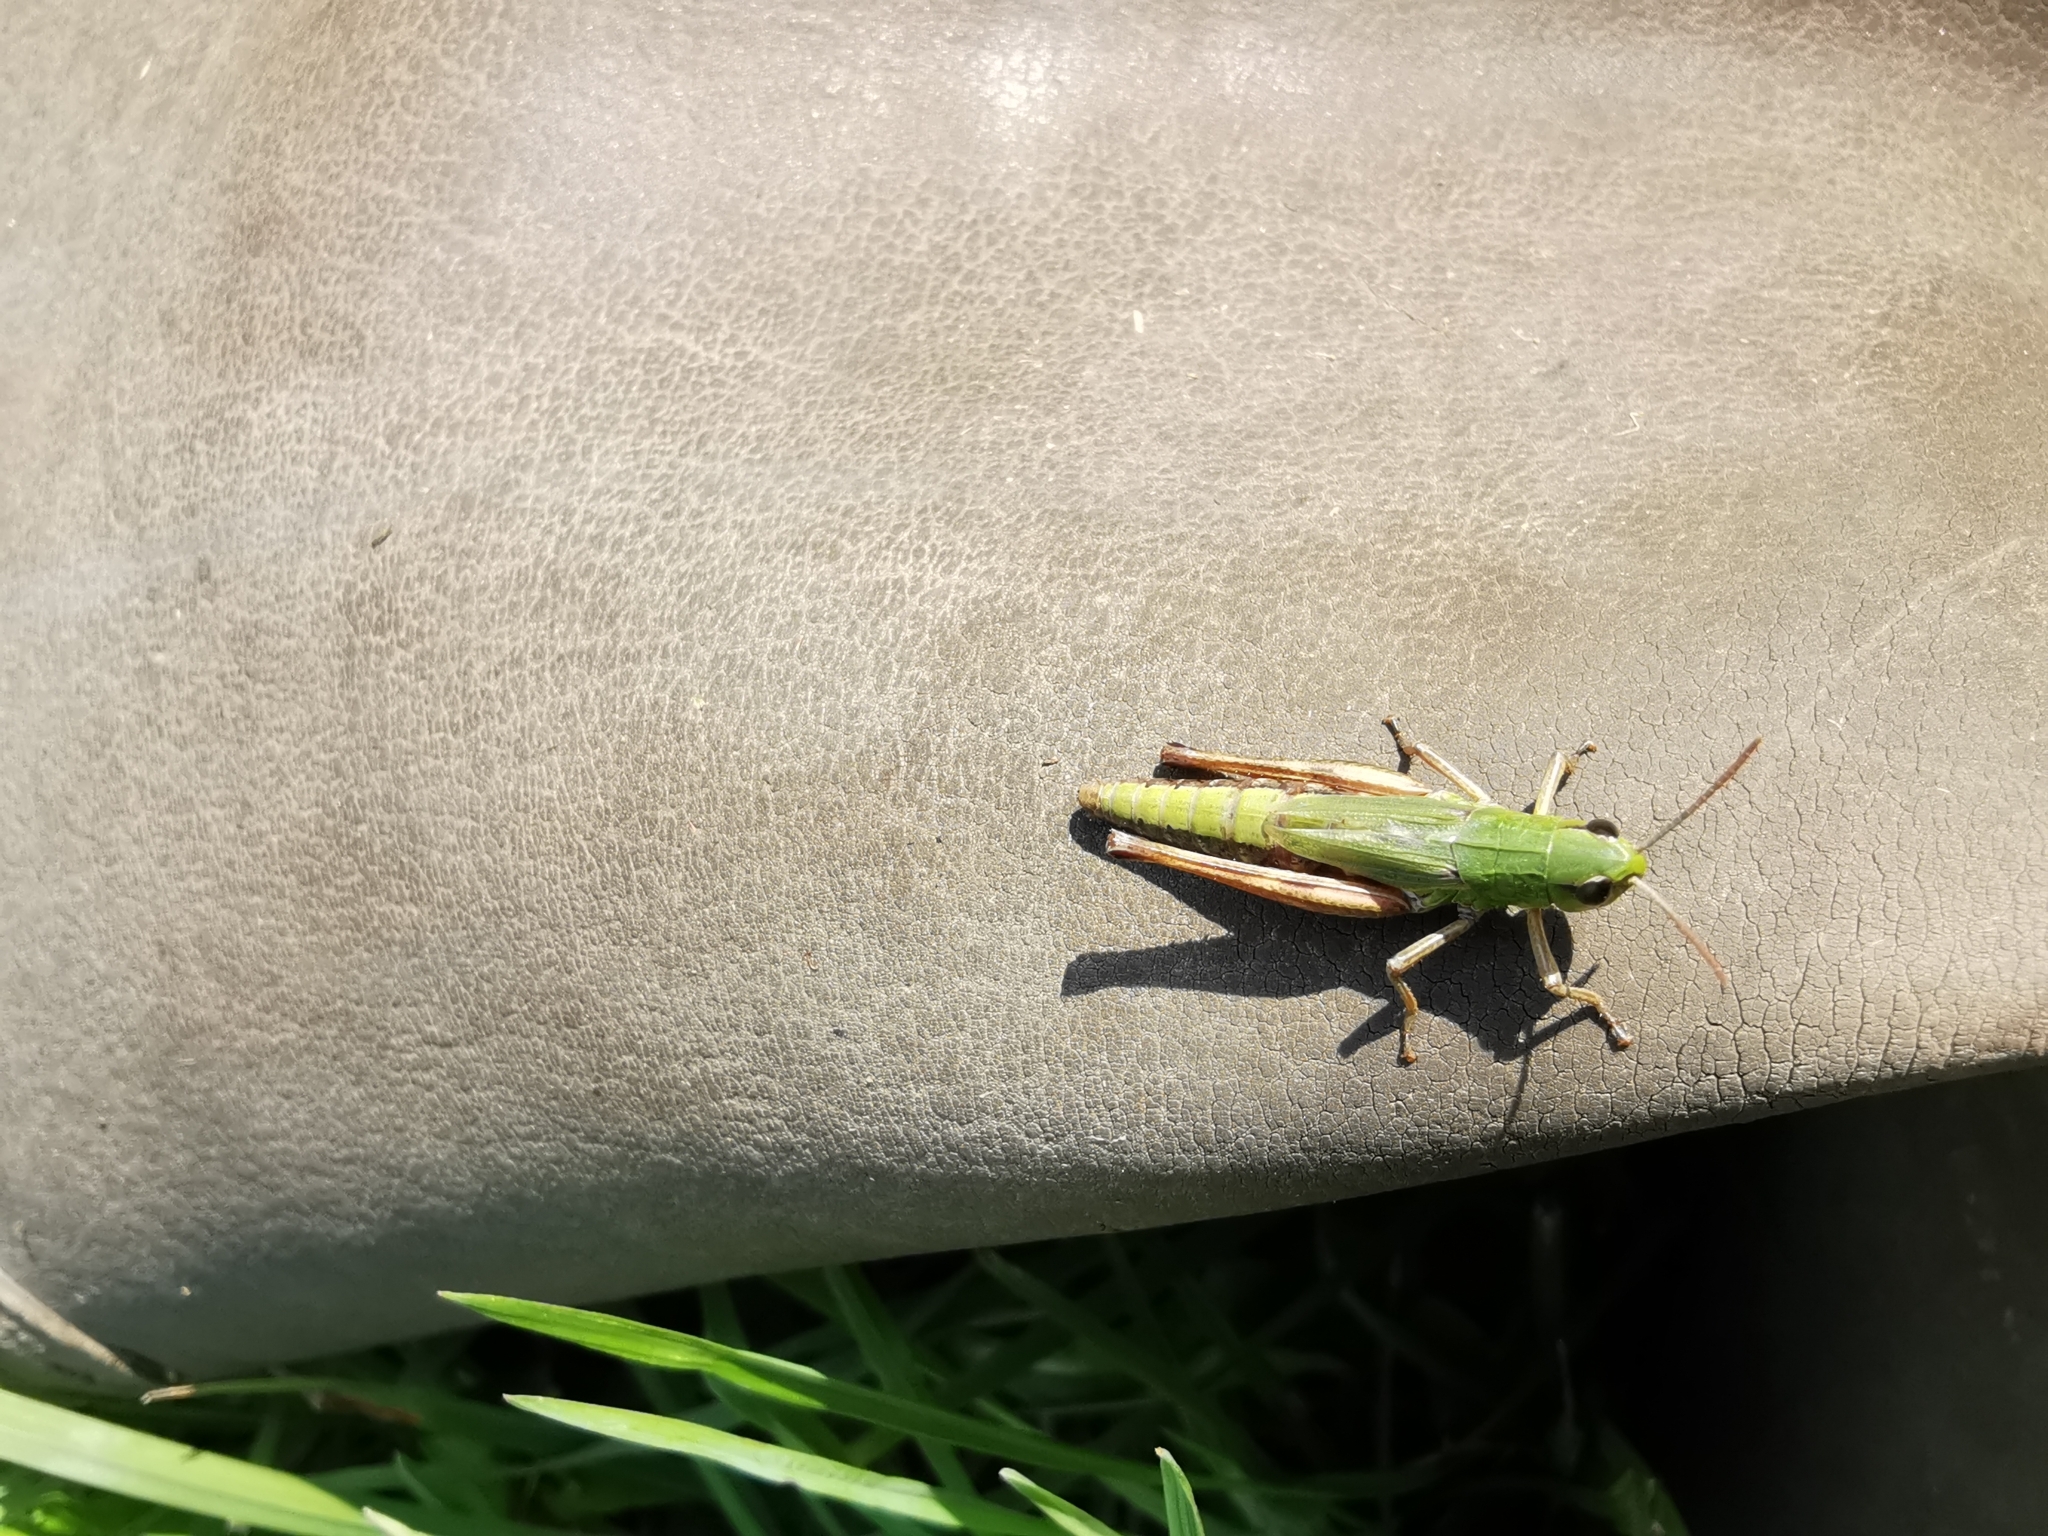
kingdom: Animalia
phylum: Arthropoda
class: Insecta
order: Orthoptera
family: Acrididae
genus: Pseudochorthippus
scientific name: Pseudochorthippus parallelus
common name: Meadow grasshopper
